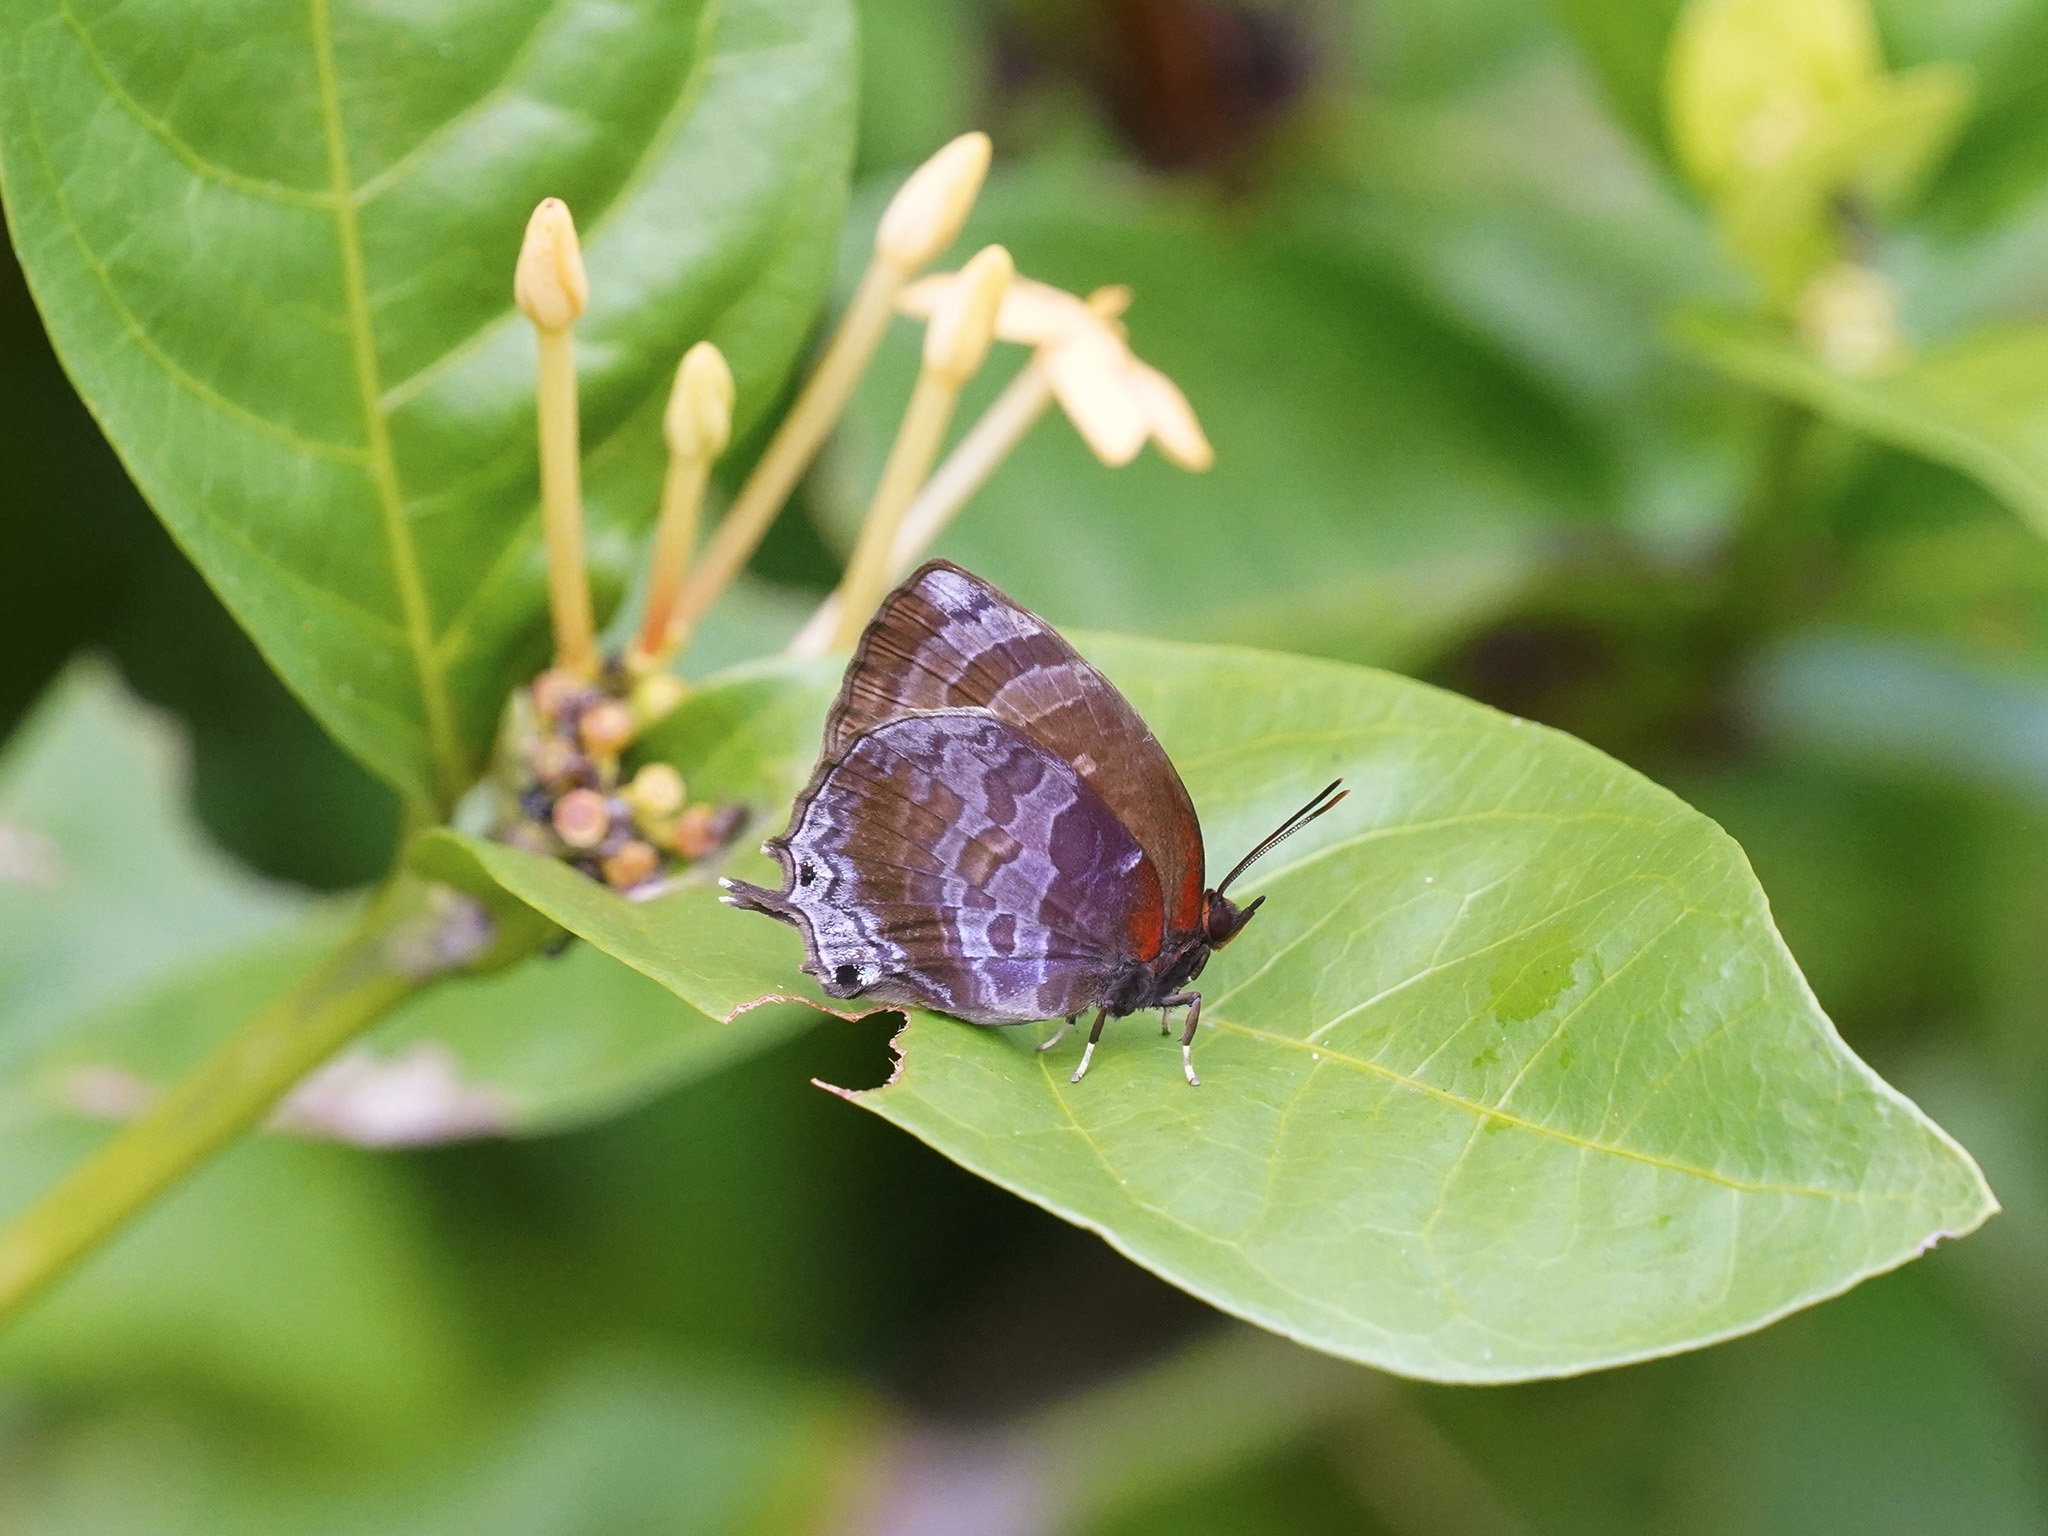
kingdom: Animalia
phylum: Arthropoda
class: Insecta
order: Lepidoptera
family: Lycaenidae
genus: Flos
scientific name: Flos apidanus
